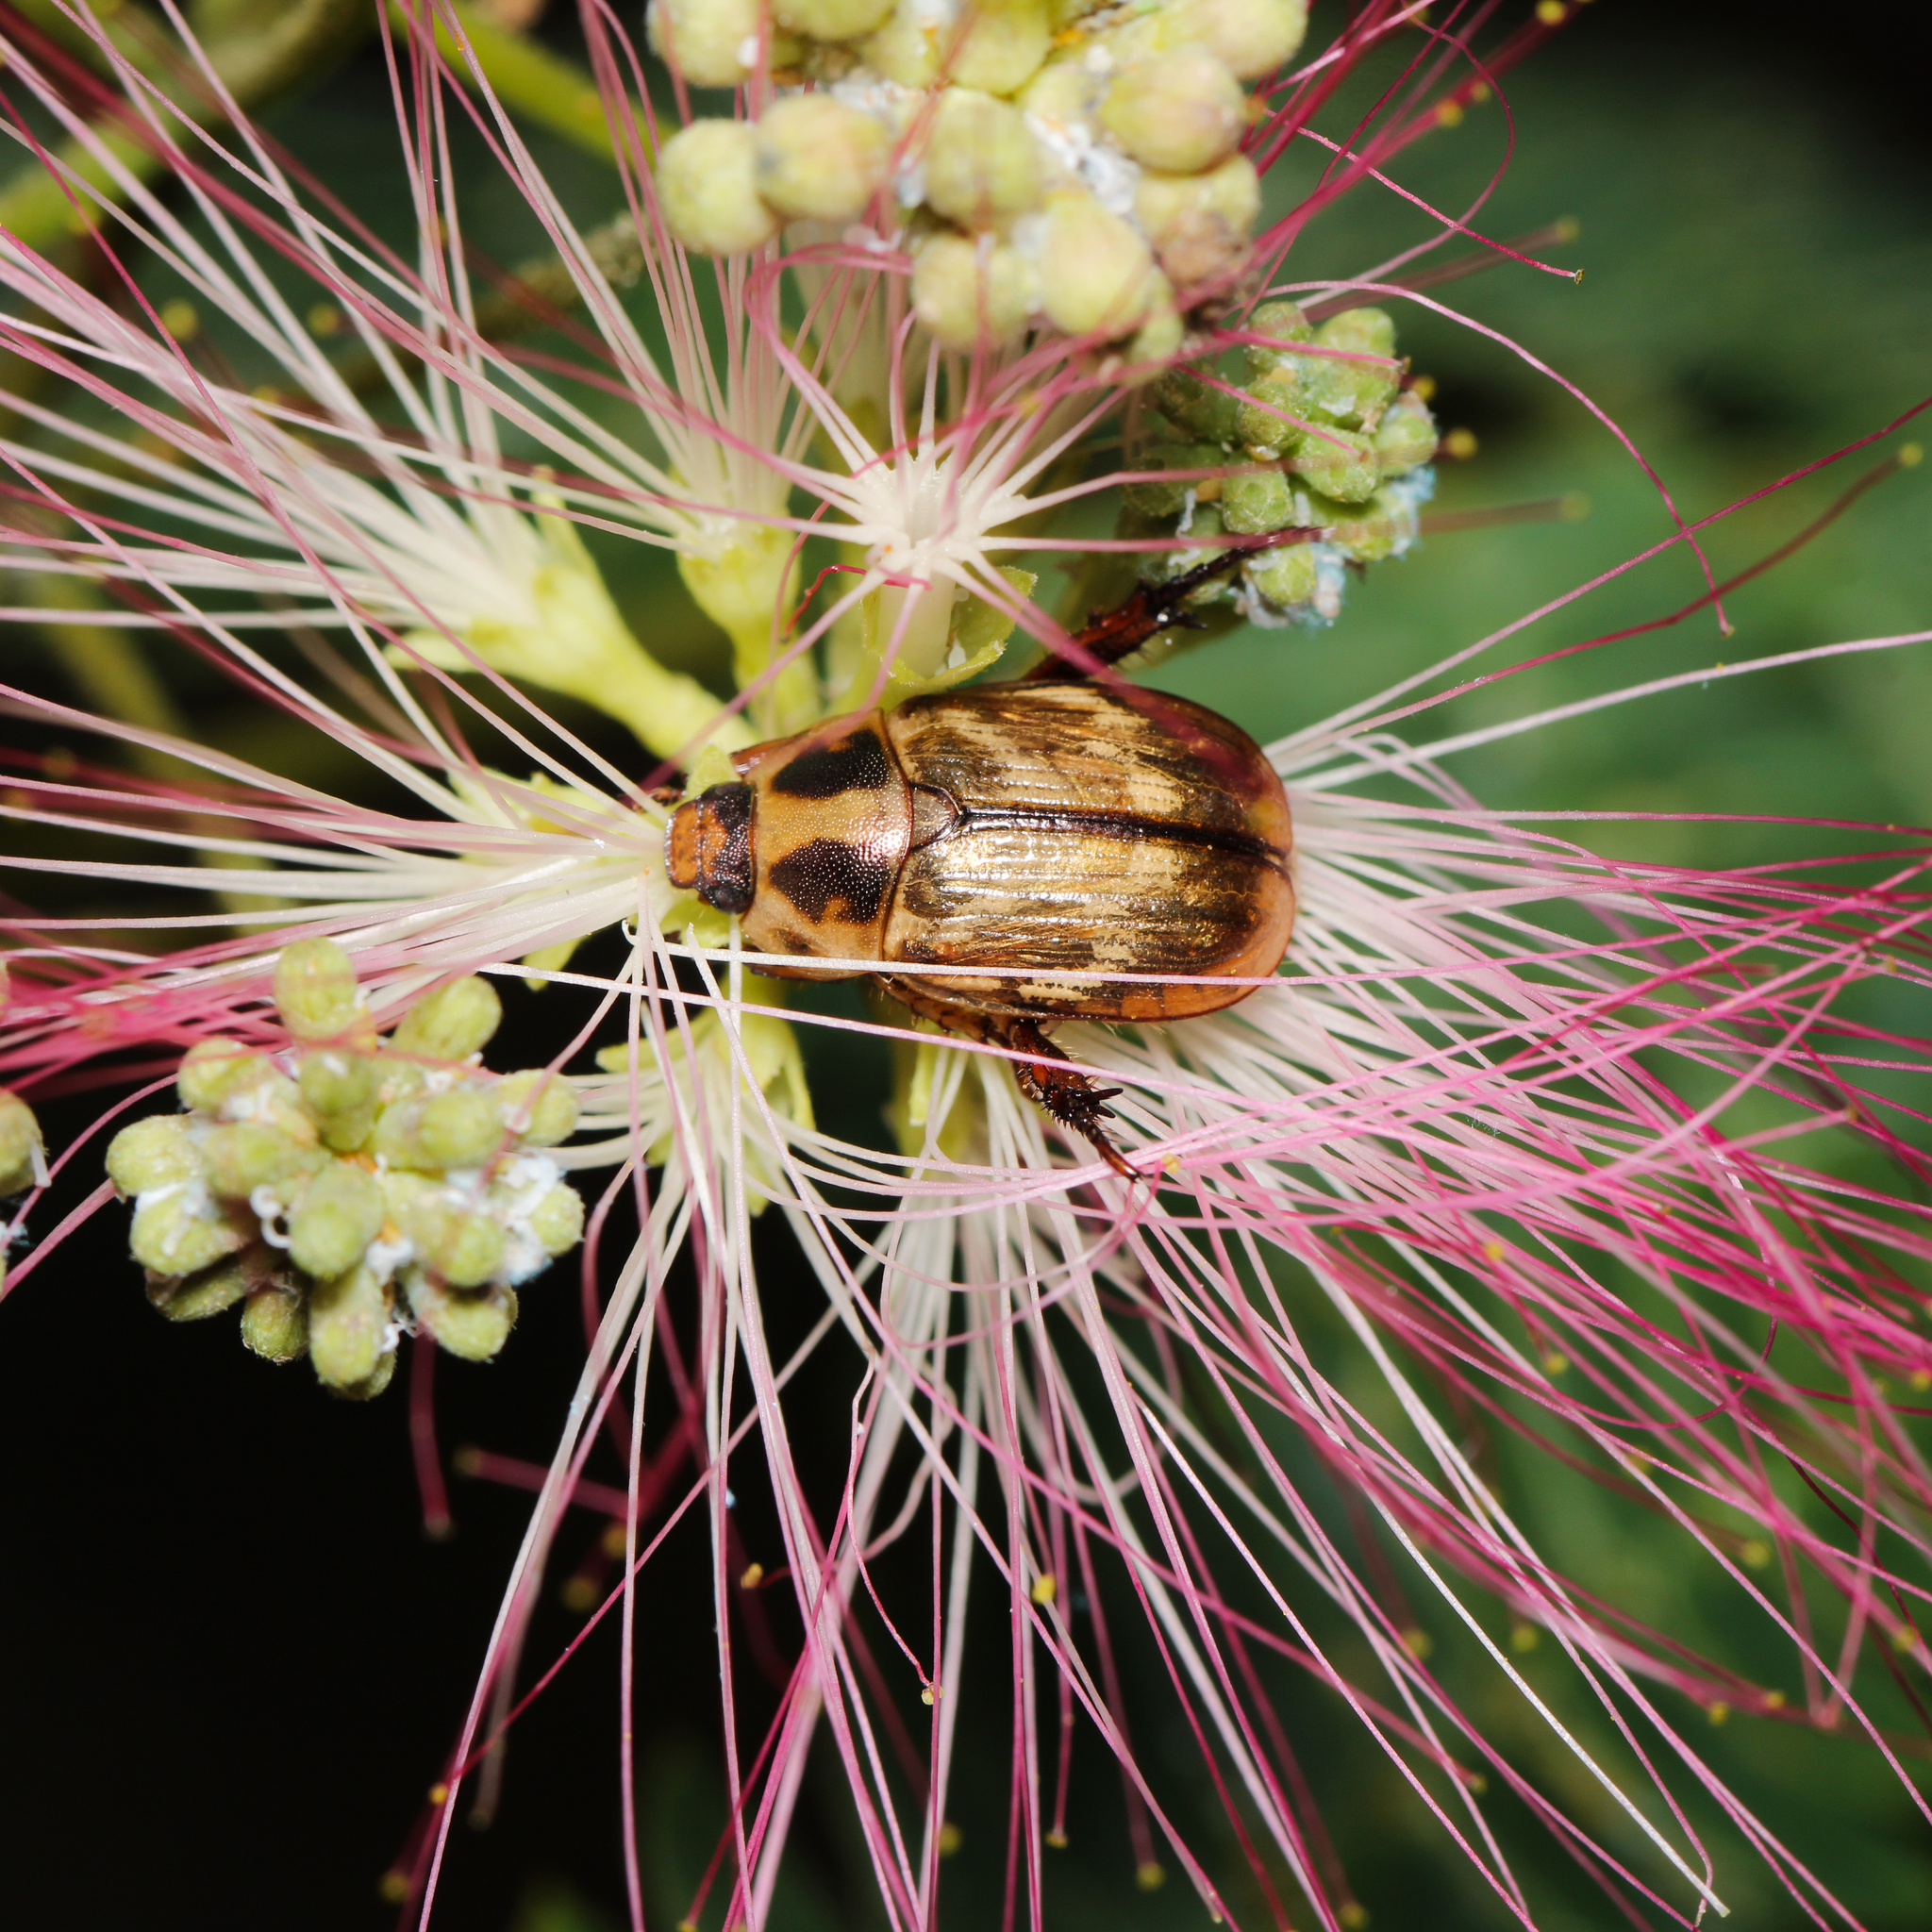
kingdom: Animalia
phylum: Arthropoda
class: Insecta
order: Coleoptera
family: Scarabaeidae
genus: Exomala
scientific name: Exomala orientalis
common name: Oriental beetle
